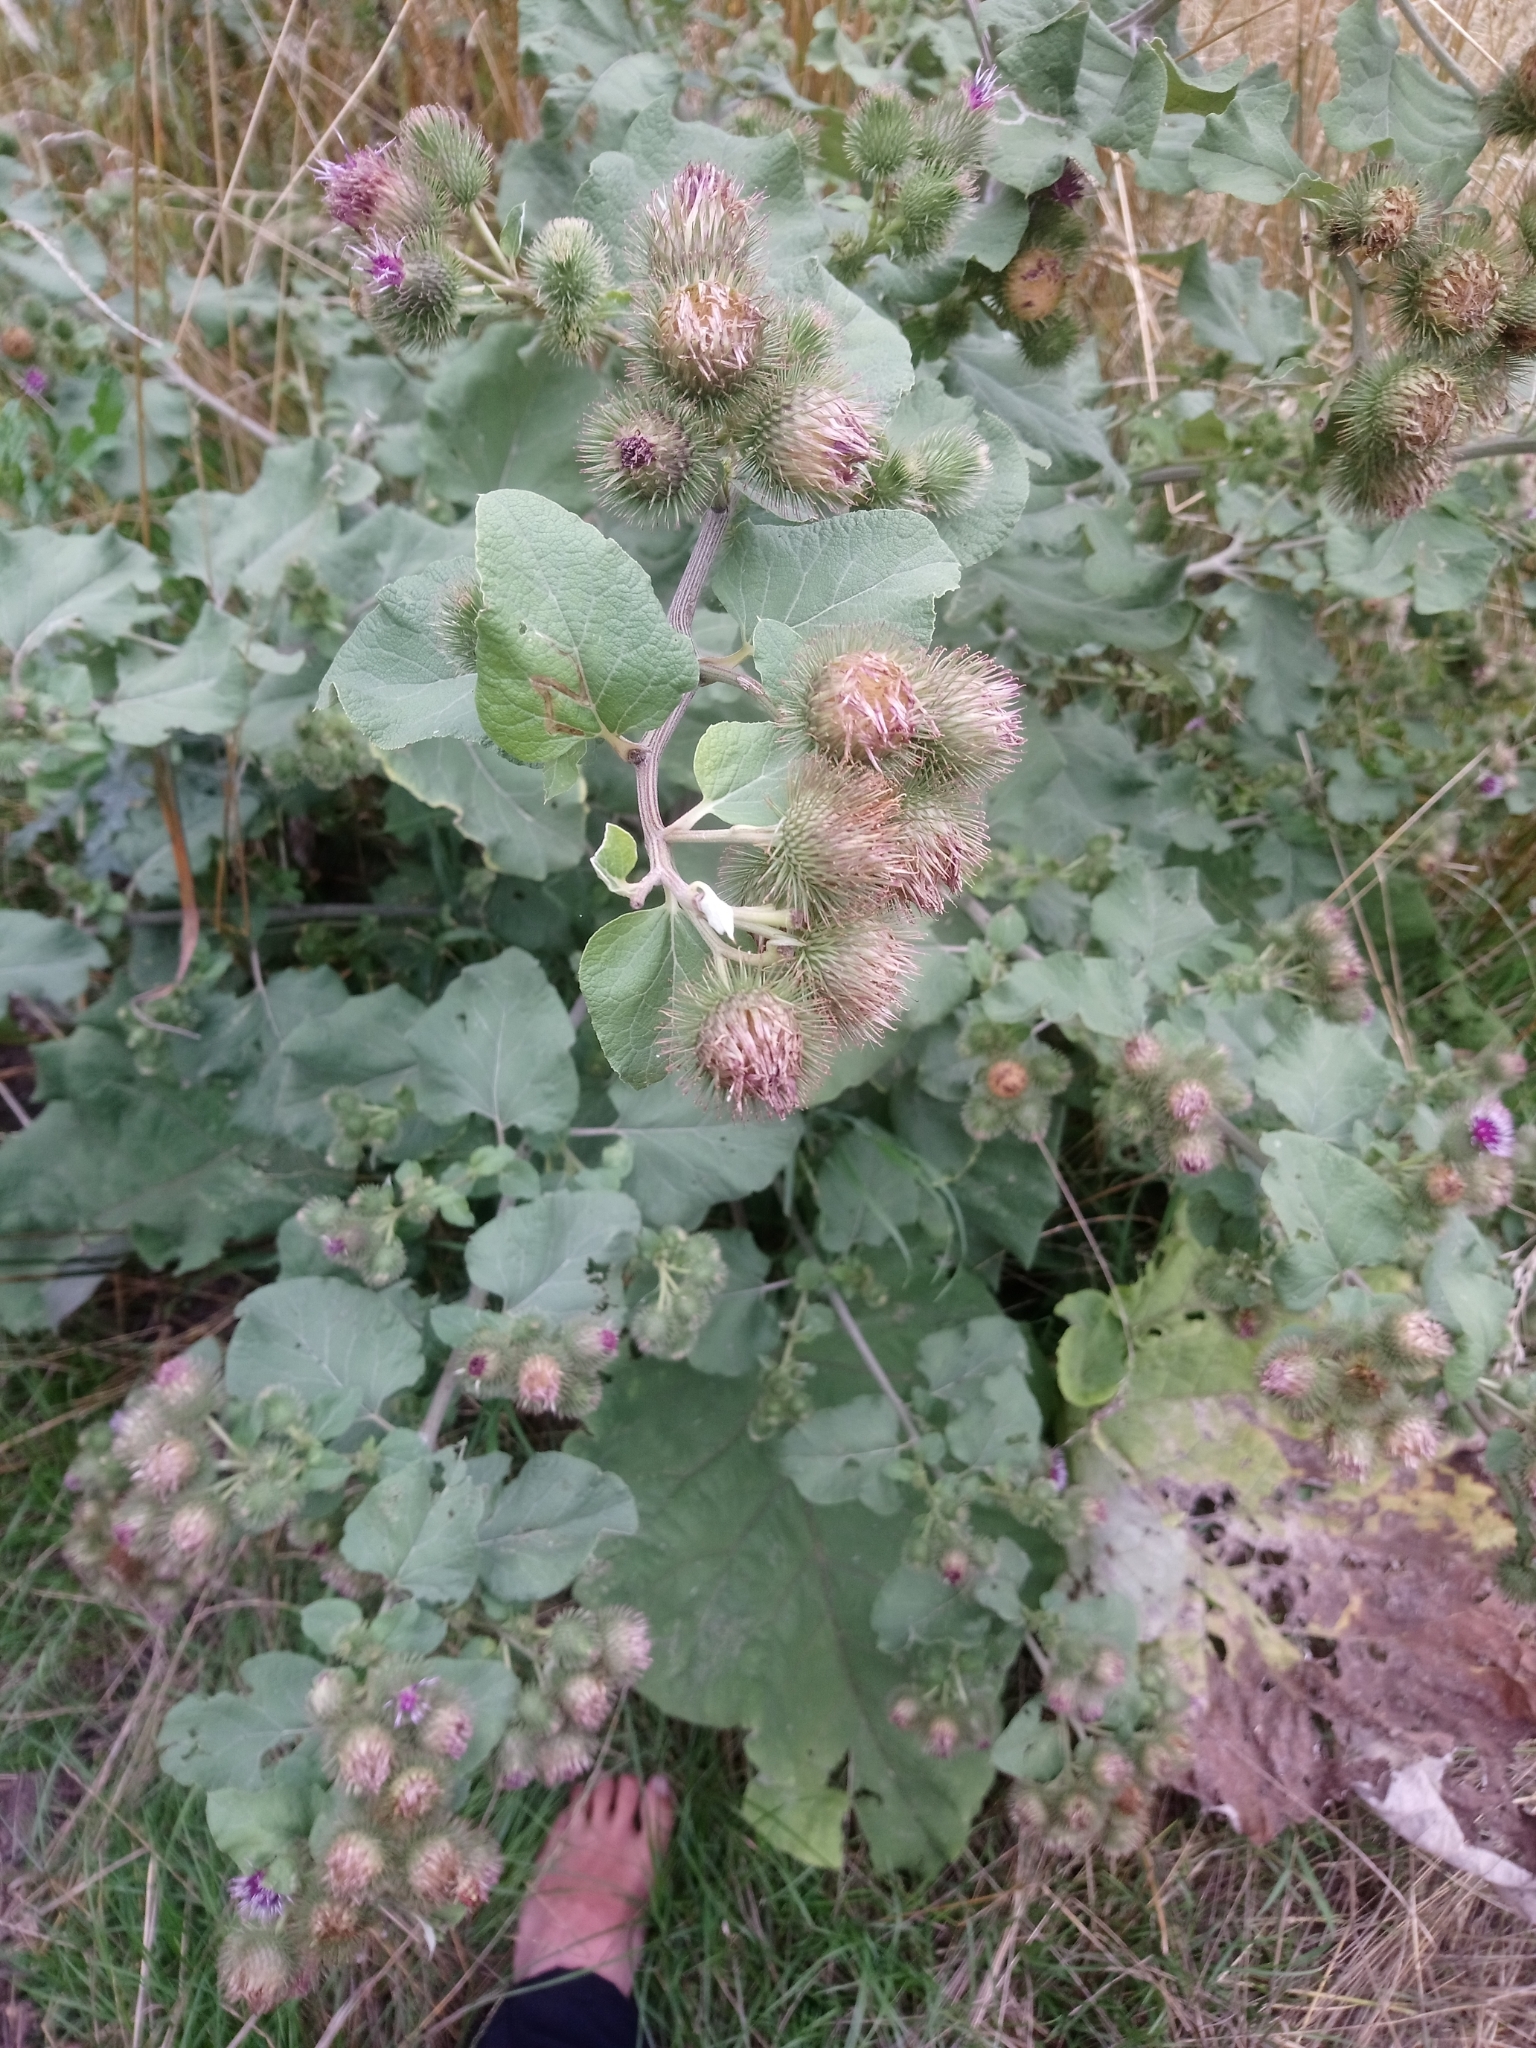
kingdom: Plantae
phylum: Tracheophyta
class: Magnoliopsida
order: Asterales
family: Asteraceae
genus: Arctium
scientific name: Arctium lappa
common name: Greater burdock
